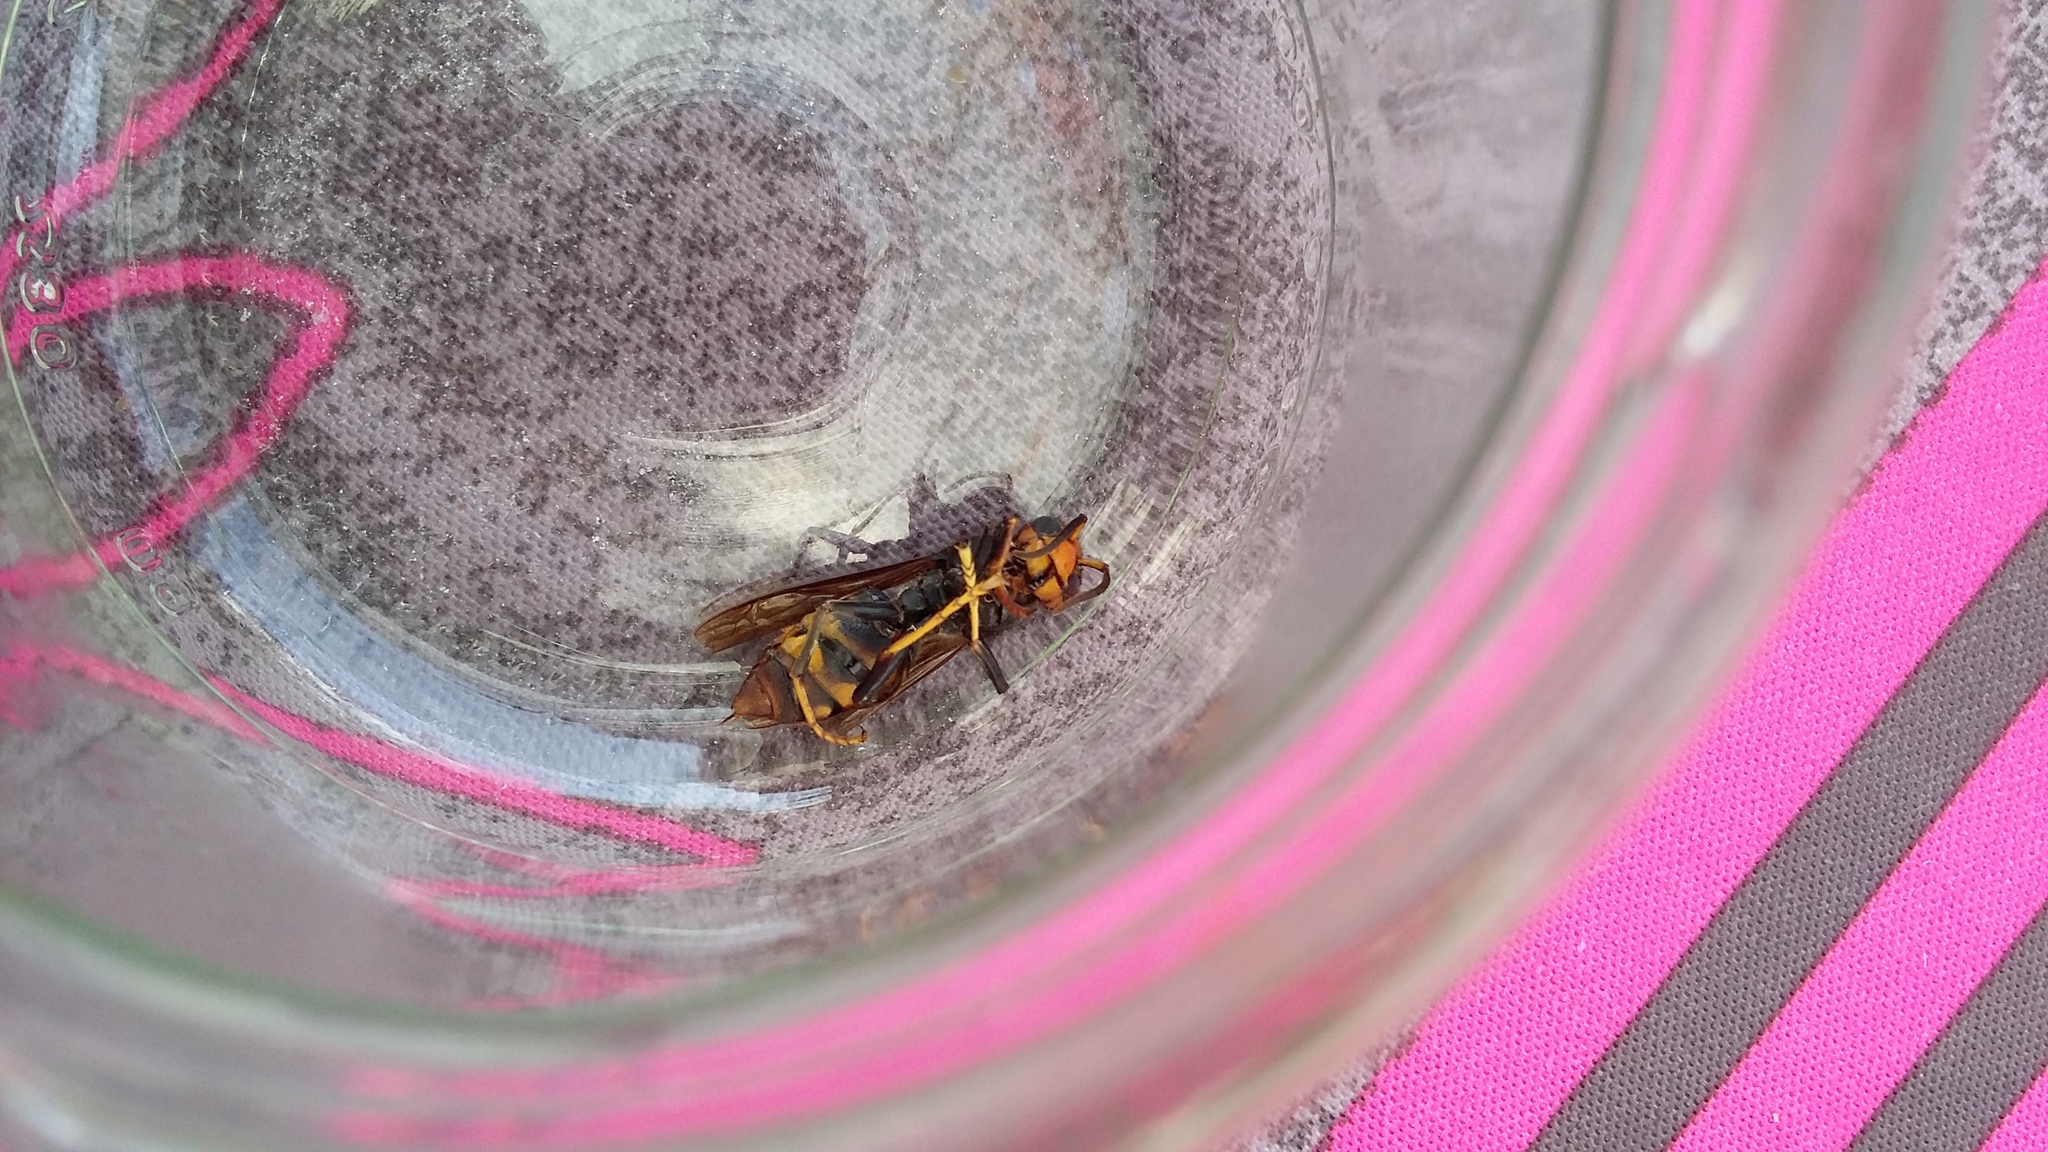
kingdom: Animalia
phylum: Arthropoda
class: Insecta
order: Hymenoptera
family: Vespidae
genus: Vespa
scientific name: Vespa velutina
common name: Asian hornet
